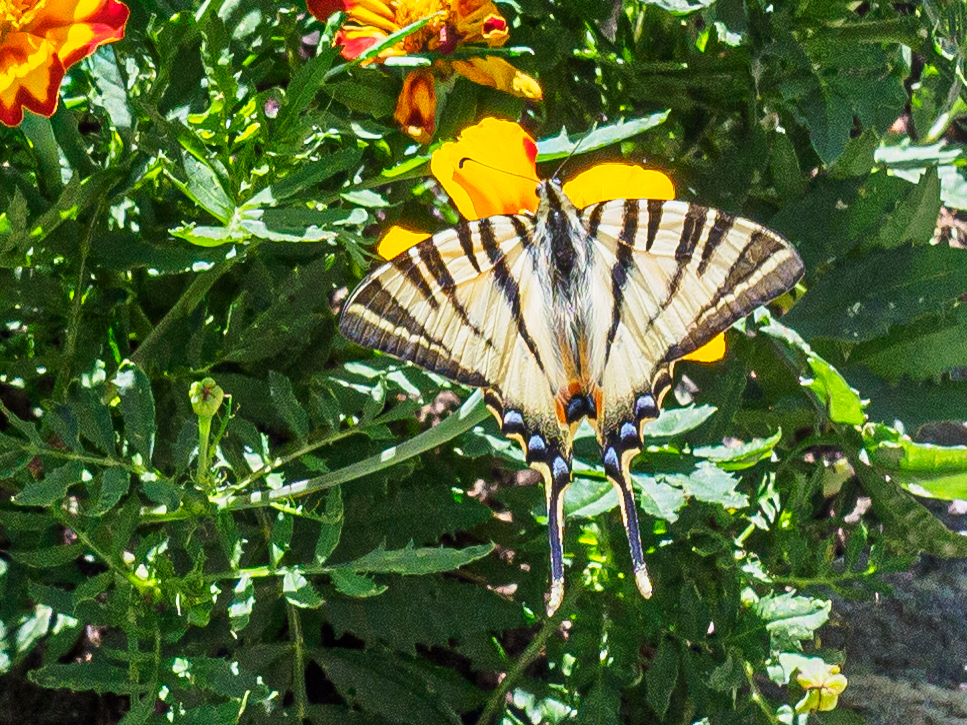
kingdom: Animalia
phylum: Arthropoda
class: Insecta
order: Lepidoptera
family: Papilionidae
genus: Iphiclides
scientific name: Iphiclides podalirius
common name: Scarce swallowtail
